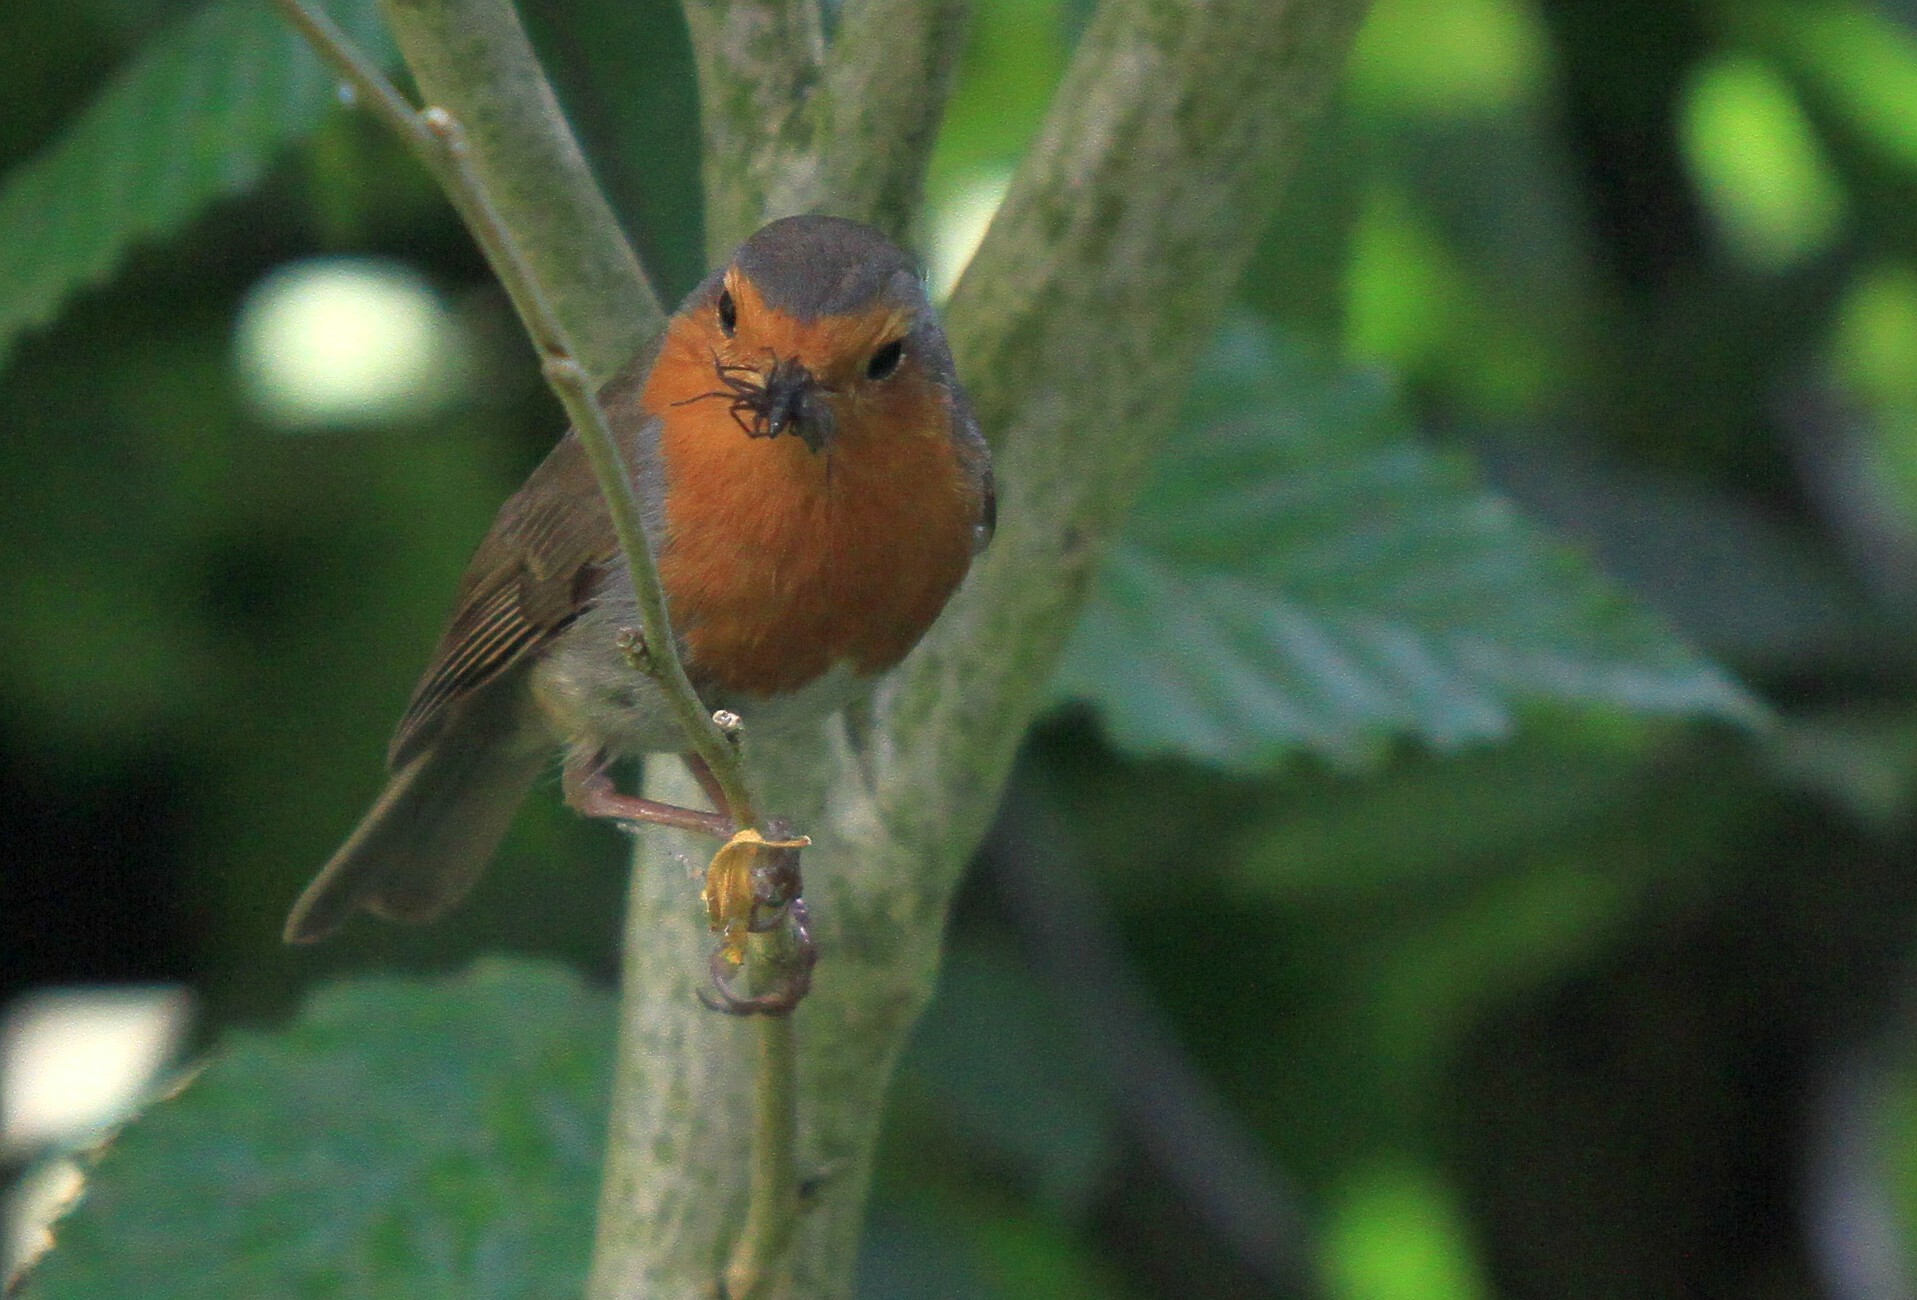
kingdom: Animalia
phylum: Chordata
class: Aves
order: Passeriformes
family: Muscicapidae
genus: Erithacus
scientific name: Erithacus rubecula
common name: European robin
